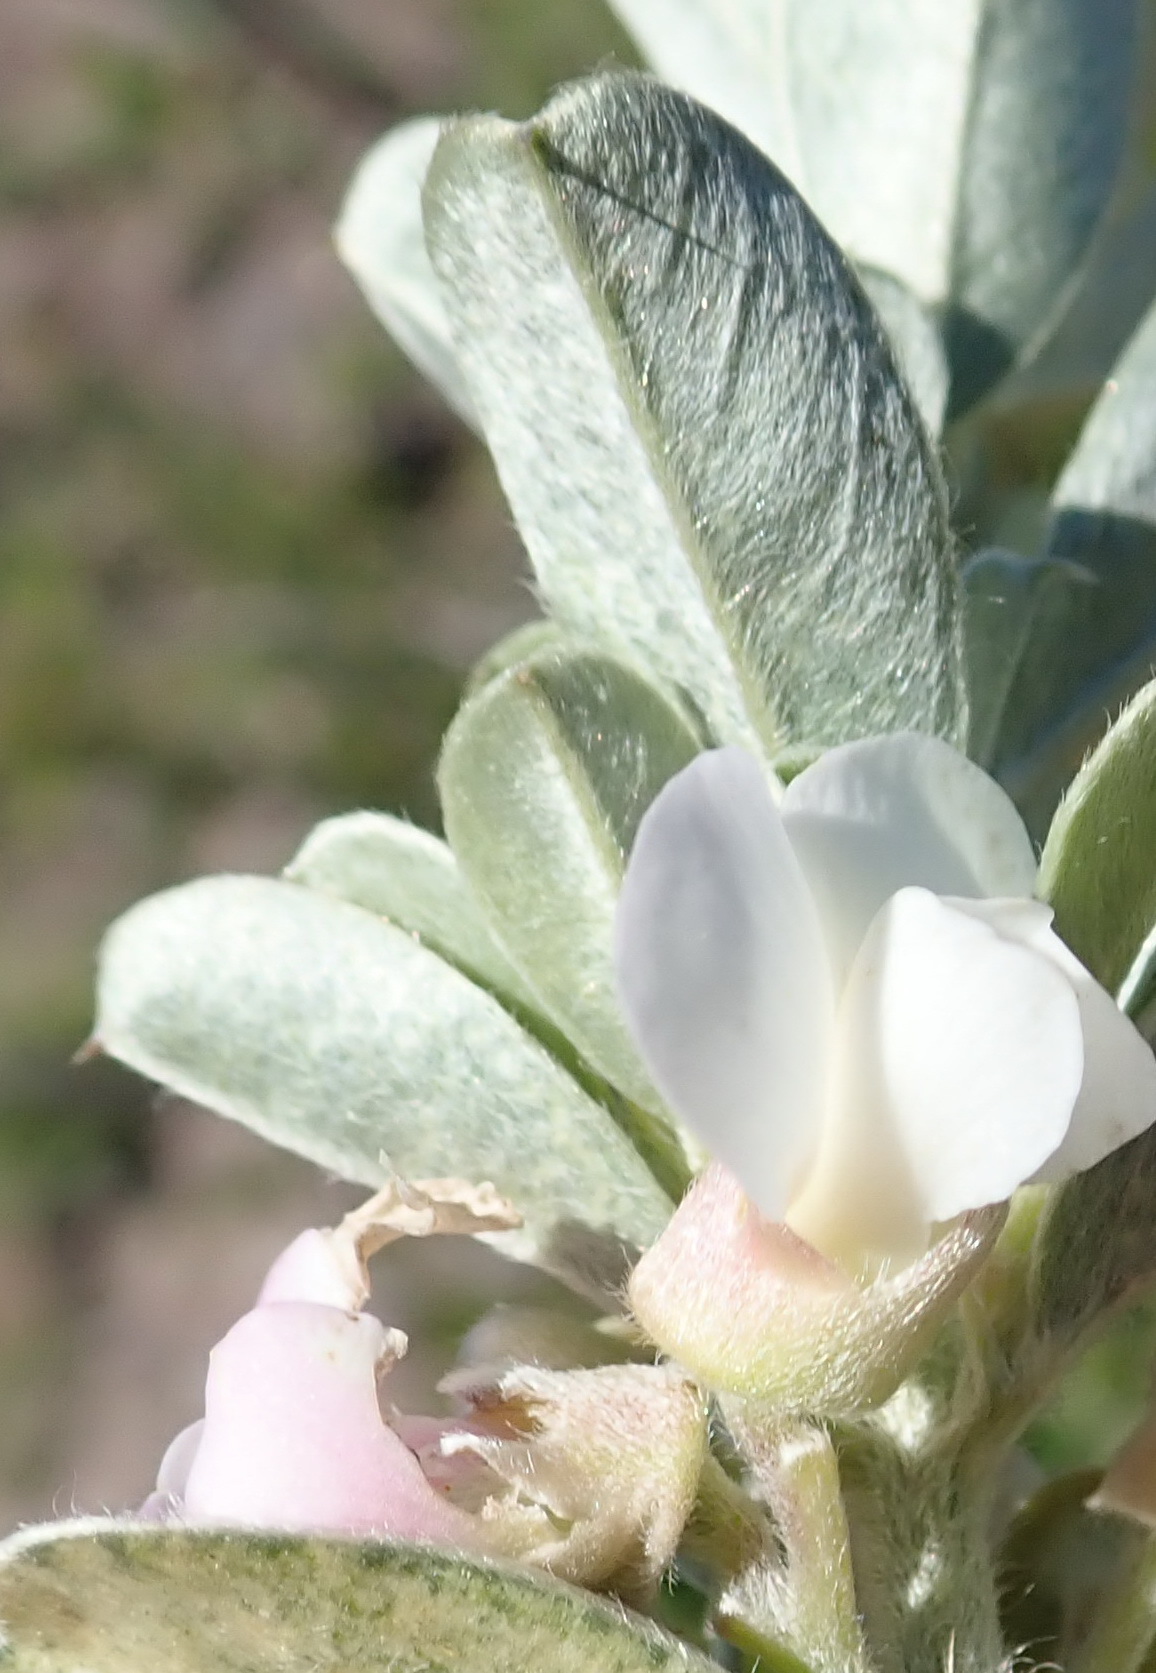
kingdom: Plantae
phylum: Tracheophyta
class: Magnoliopsida
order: Fabales
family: Fabaceae
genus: Podalyria
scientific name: Podalyria myrtillifolia
